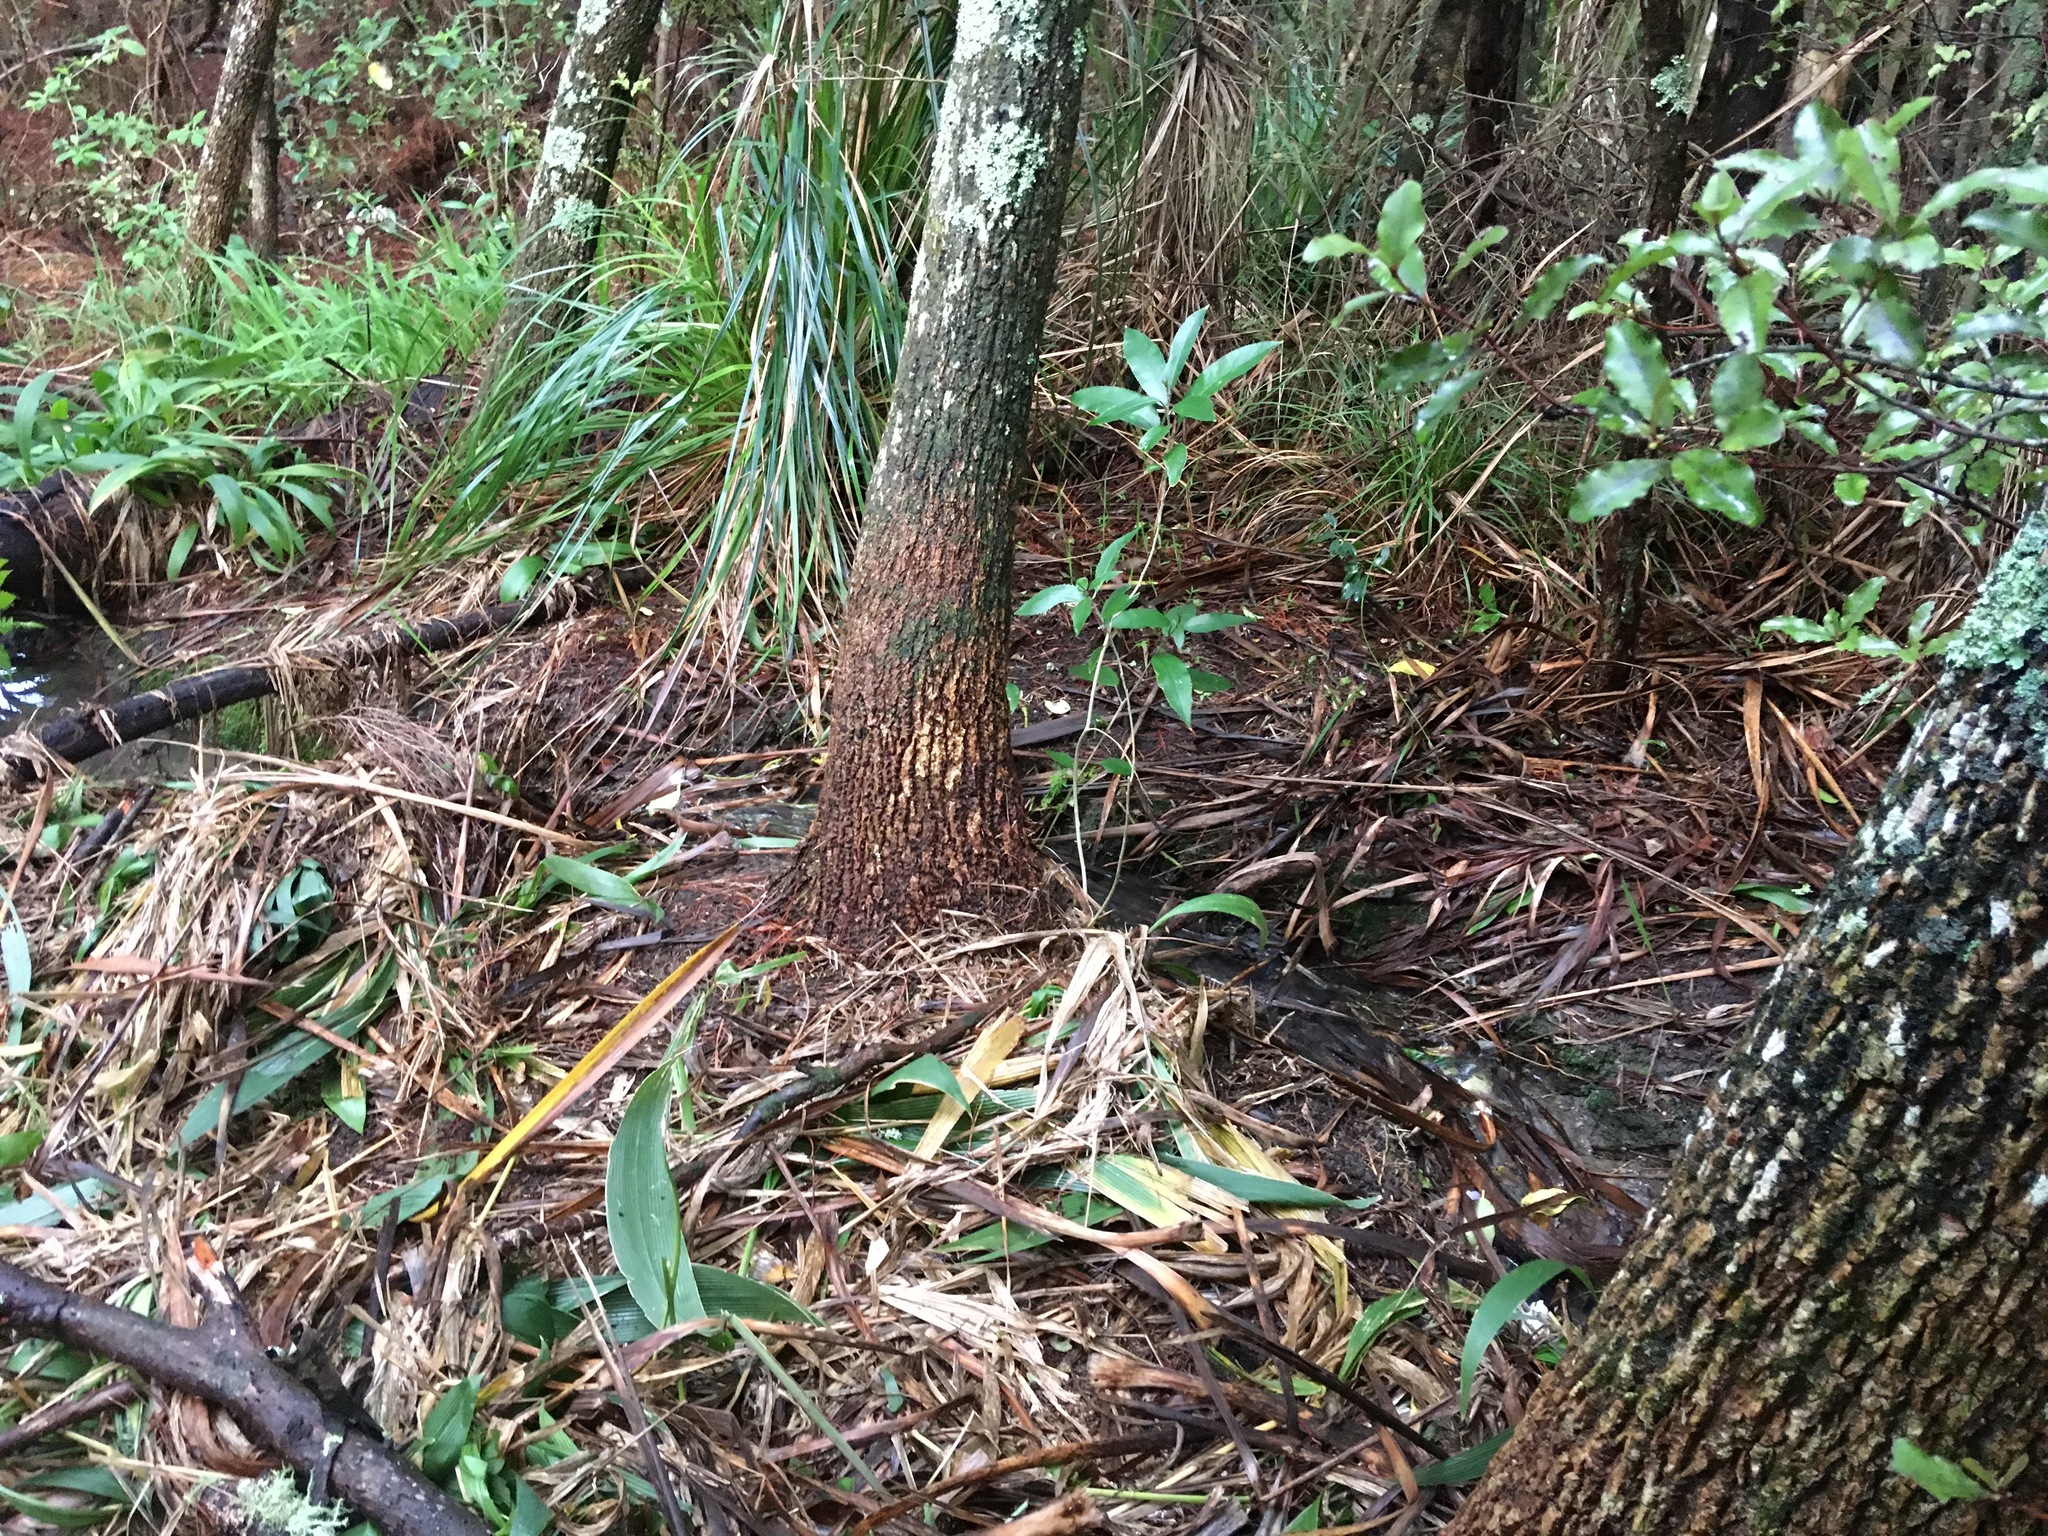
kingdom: Plantae
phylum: Tracheophyta
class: Magnoliopsida
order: Malpighiales
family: Violaceae
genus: Melicytus
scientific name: Melicytus ramiflorus
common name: Mahoe
